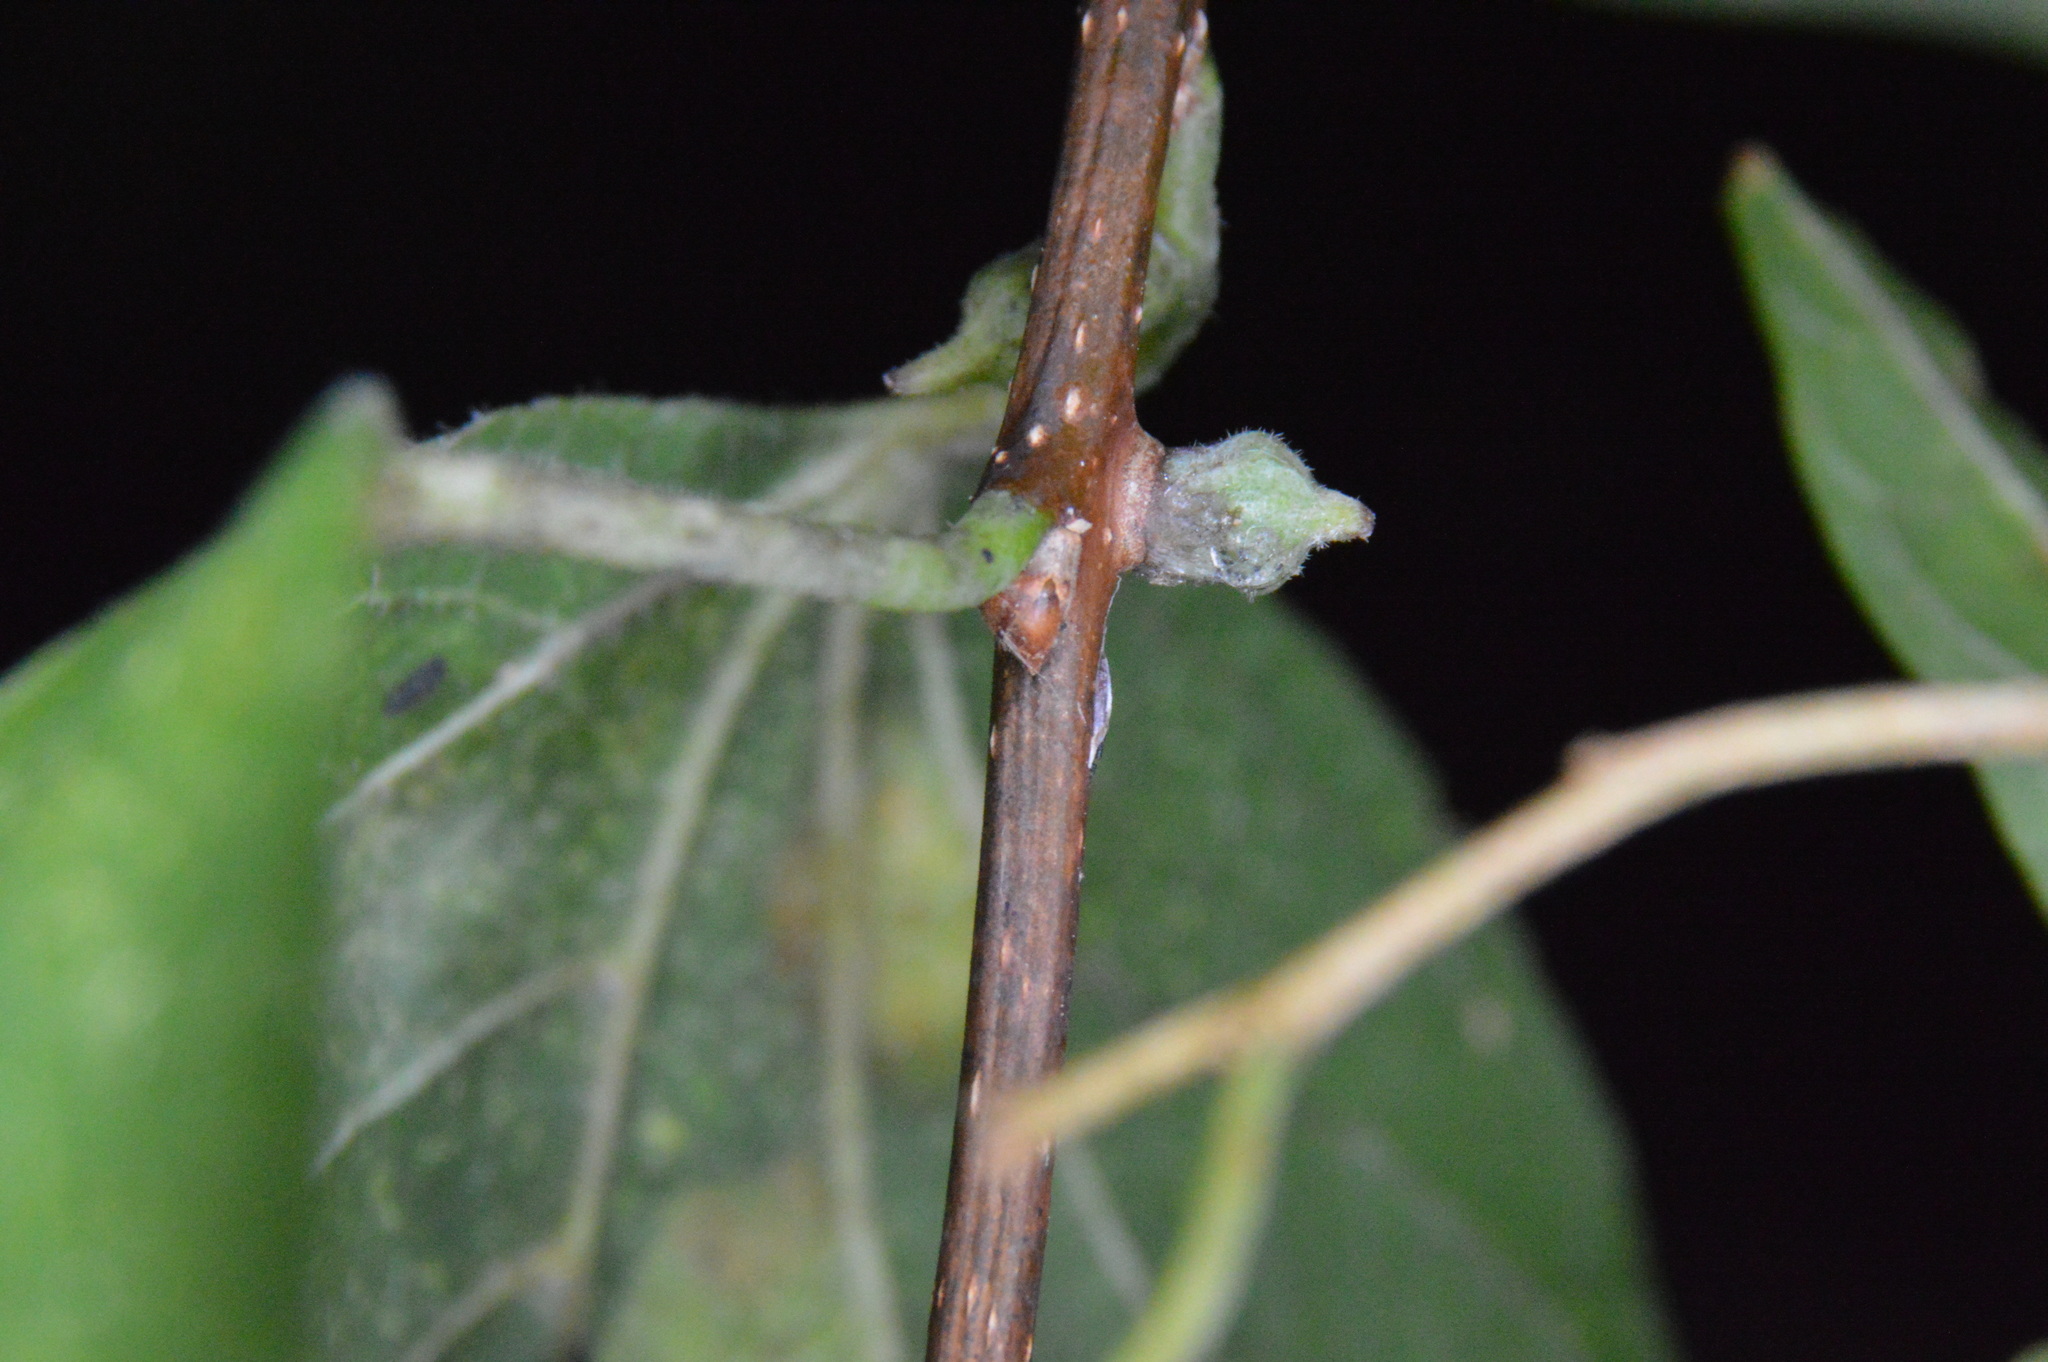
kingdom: Animalia
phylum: Arthropoda
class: Insecta
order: Diptera
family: Cecidomyiidae
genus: Celticecis
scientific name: Celticecis ramicola
